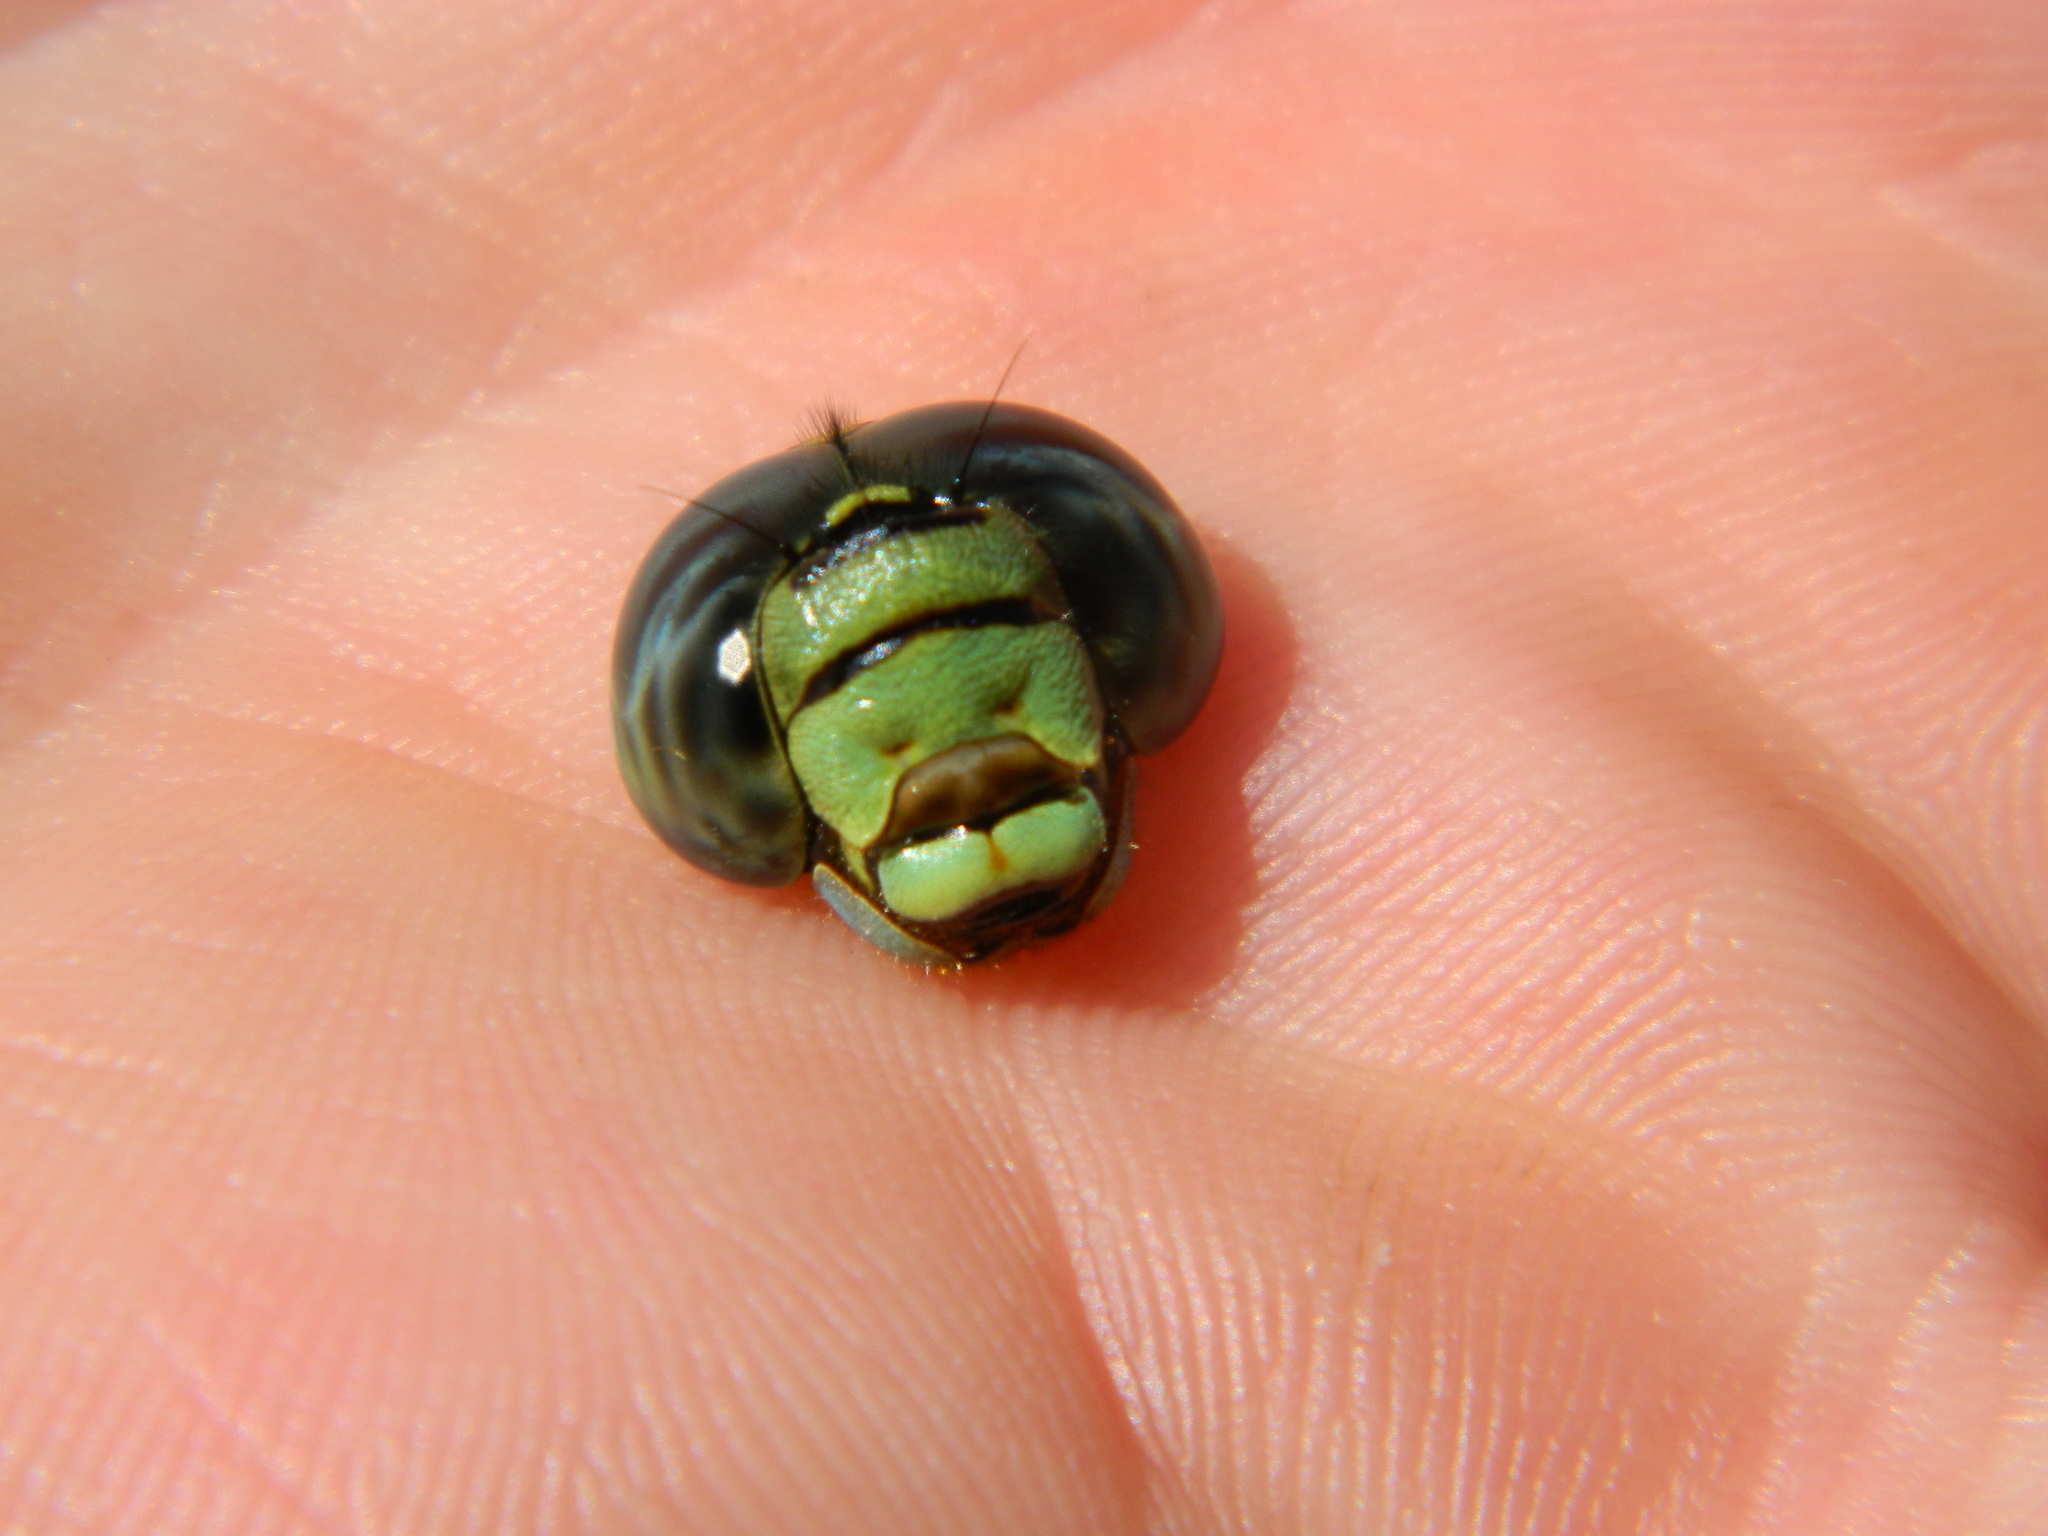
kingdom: Animalia
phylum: Arthropoda
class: Insecta
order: Odonata
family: Aeshnidae
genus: Aeshna
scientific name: Aeshna eremita
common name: Lake darner
